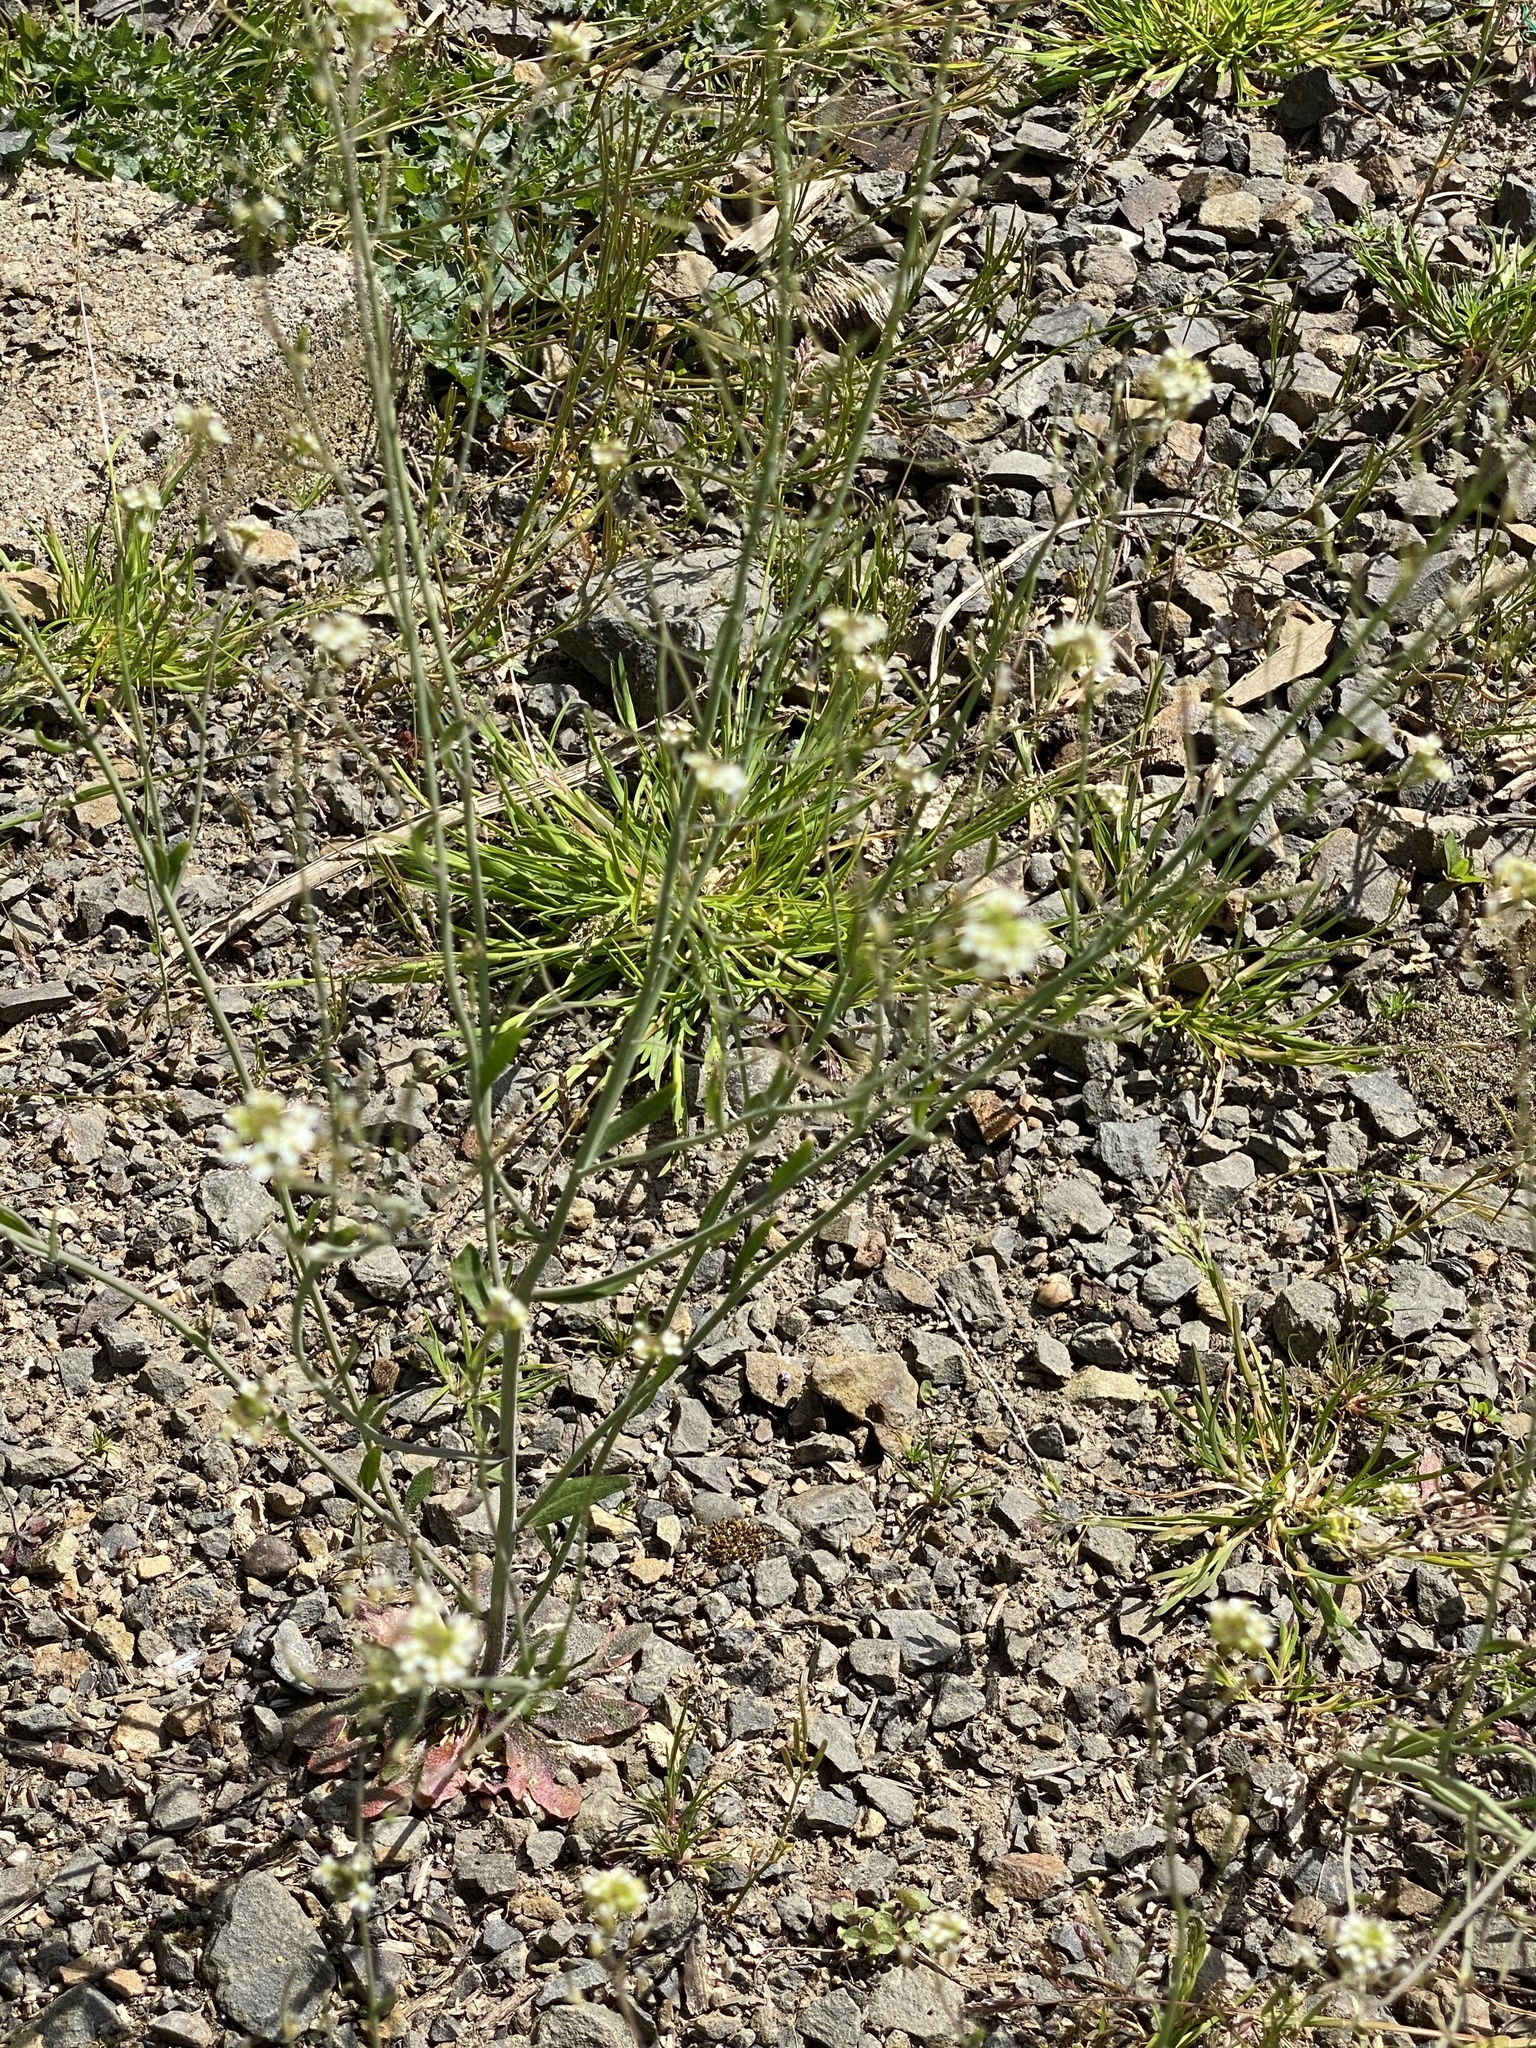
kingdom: Plantae
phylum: Tracheophyta
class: Magnoliopsida
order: Brassicales
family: Brassicaceae
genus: Arabidopsis
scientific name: Arabidopsis thaliana
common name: Thale cress
